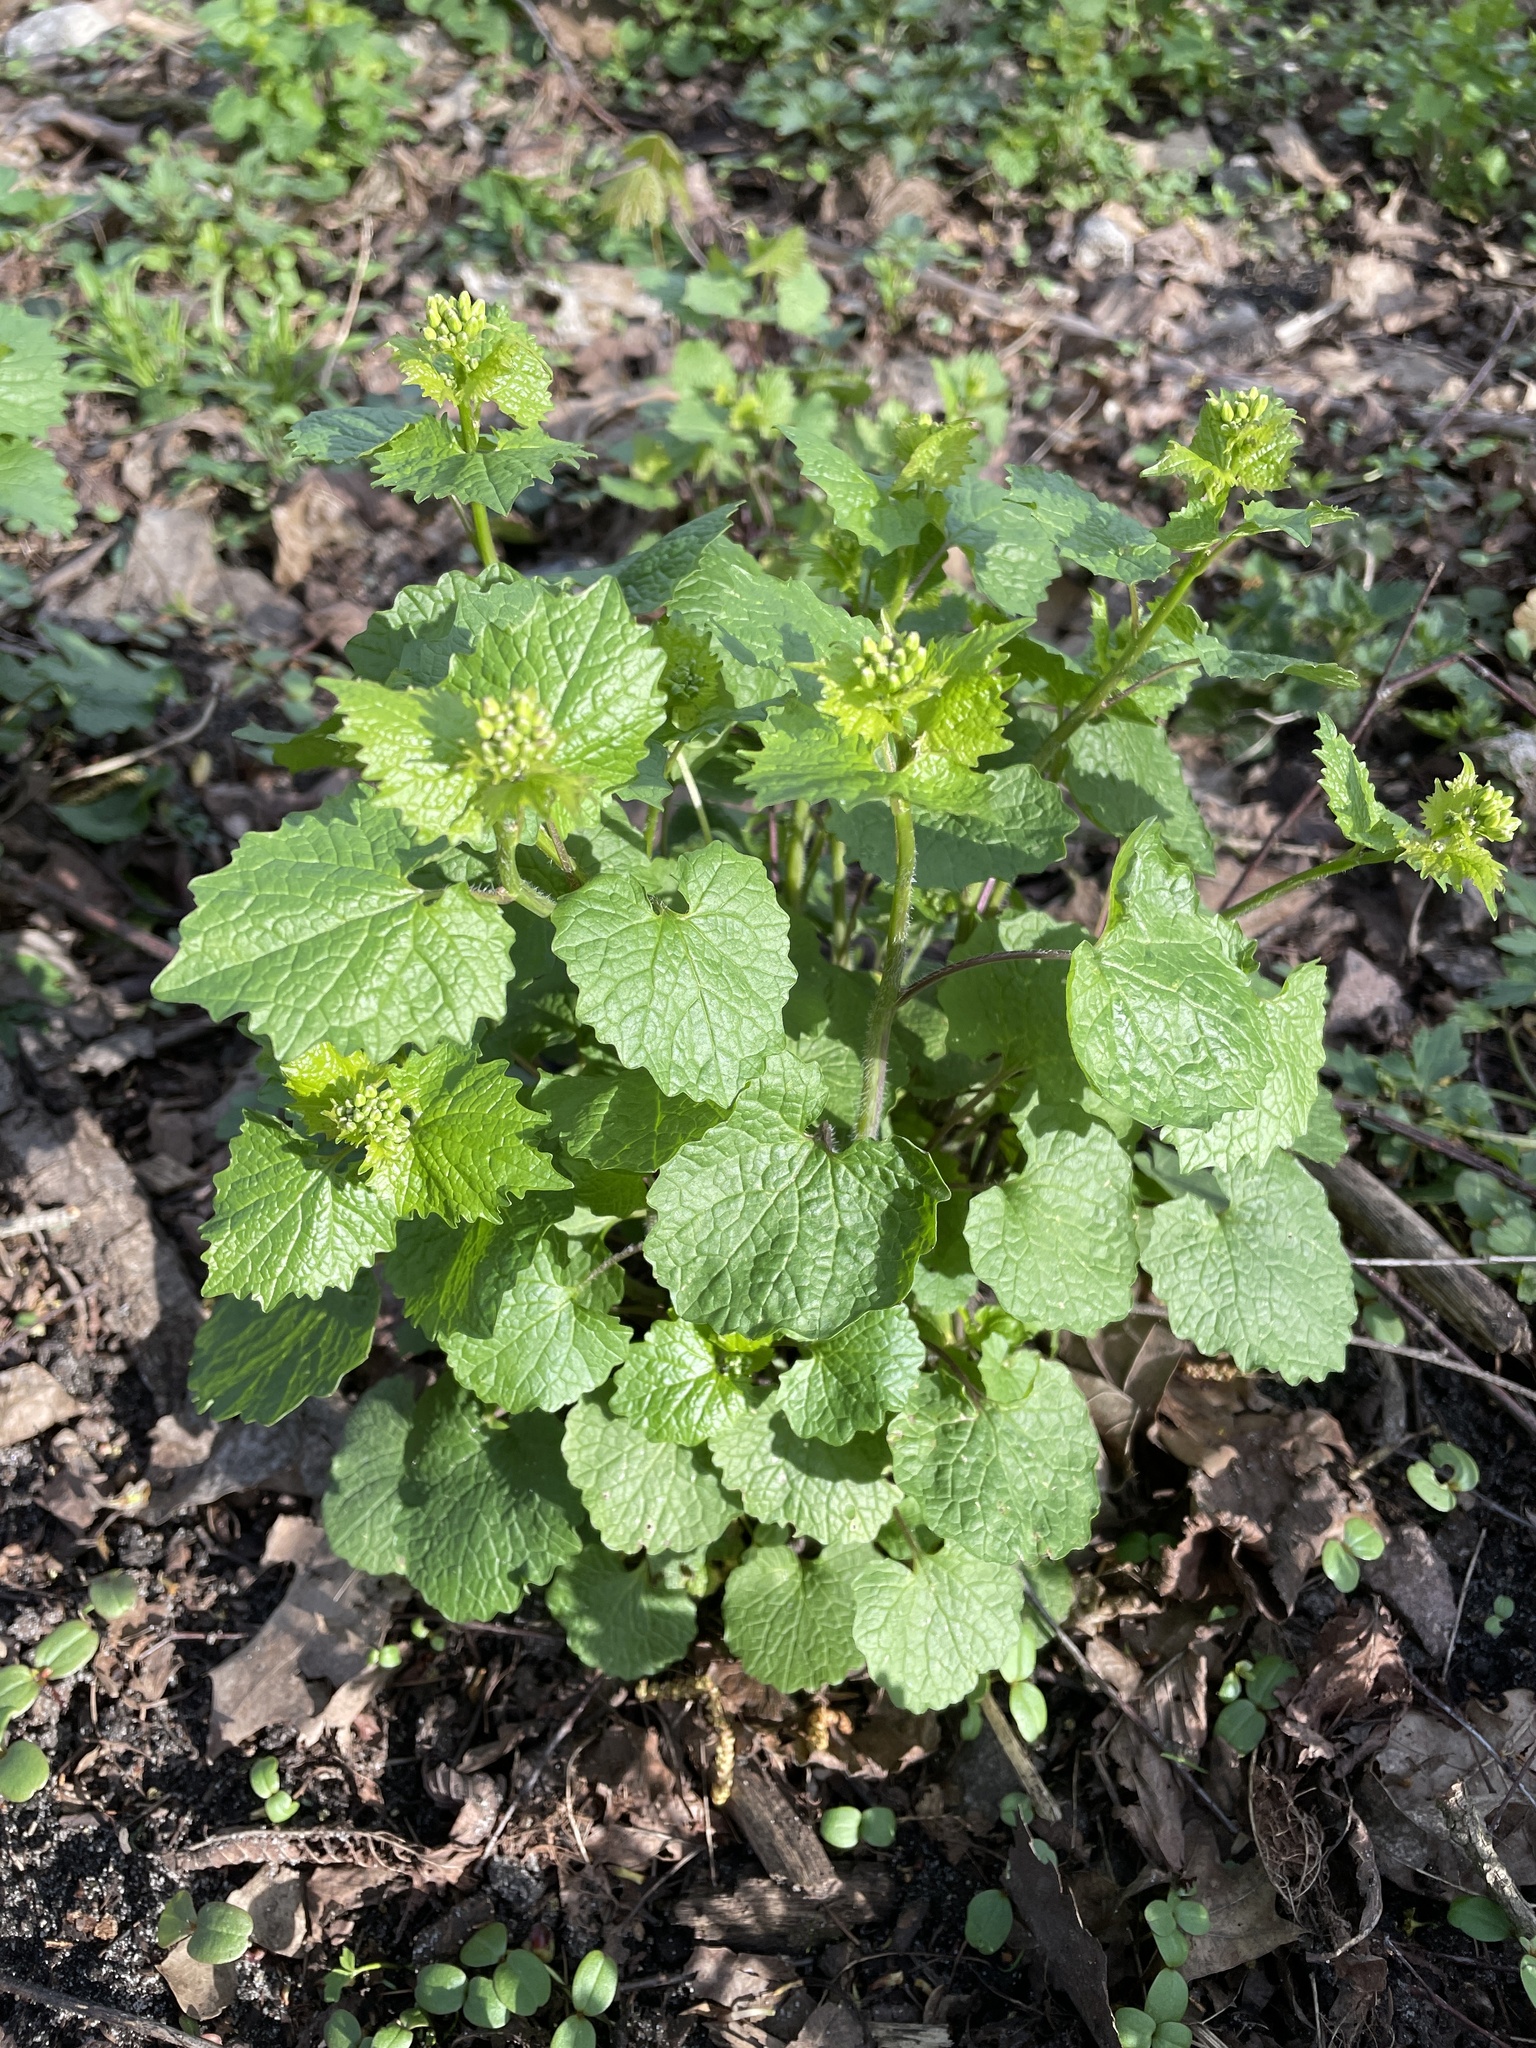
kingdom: Plantae
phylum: Tracheophyta
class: Magnoliopsida
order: Brassicales
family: Brassicaceae
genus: Alliaria
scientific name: Alliaria petiolata
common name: Garlic mustard
